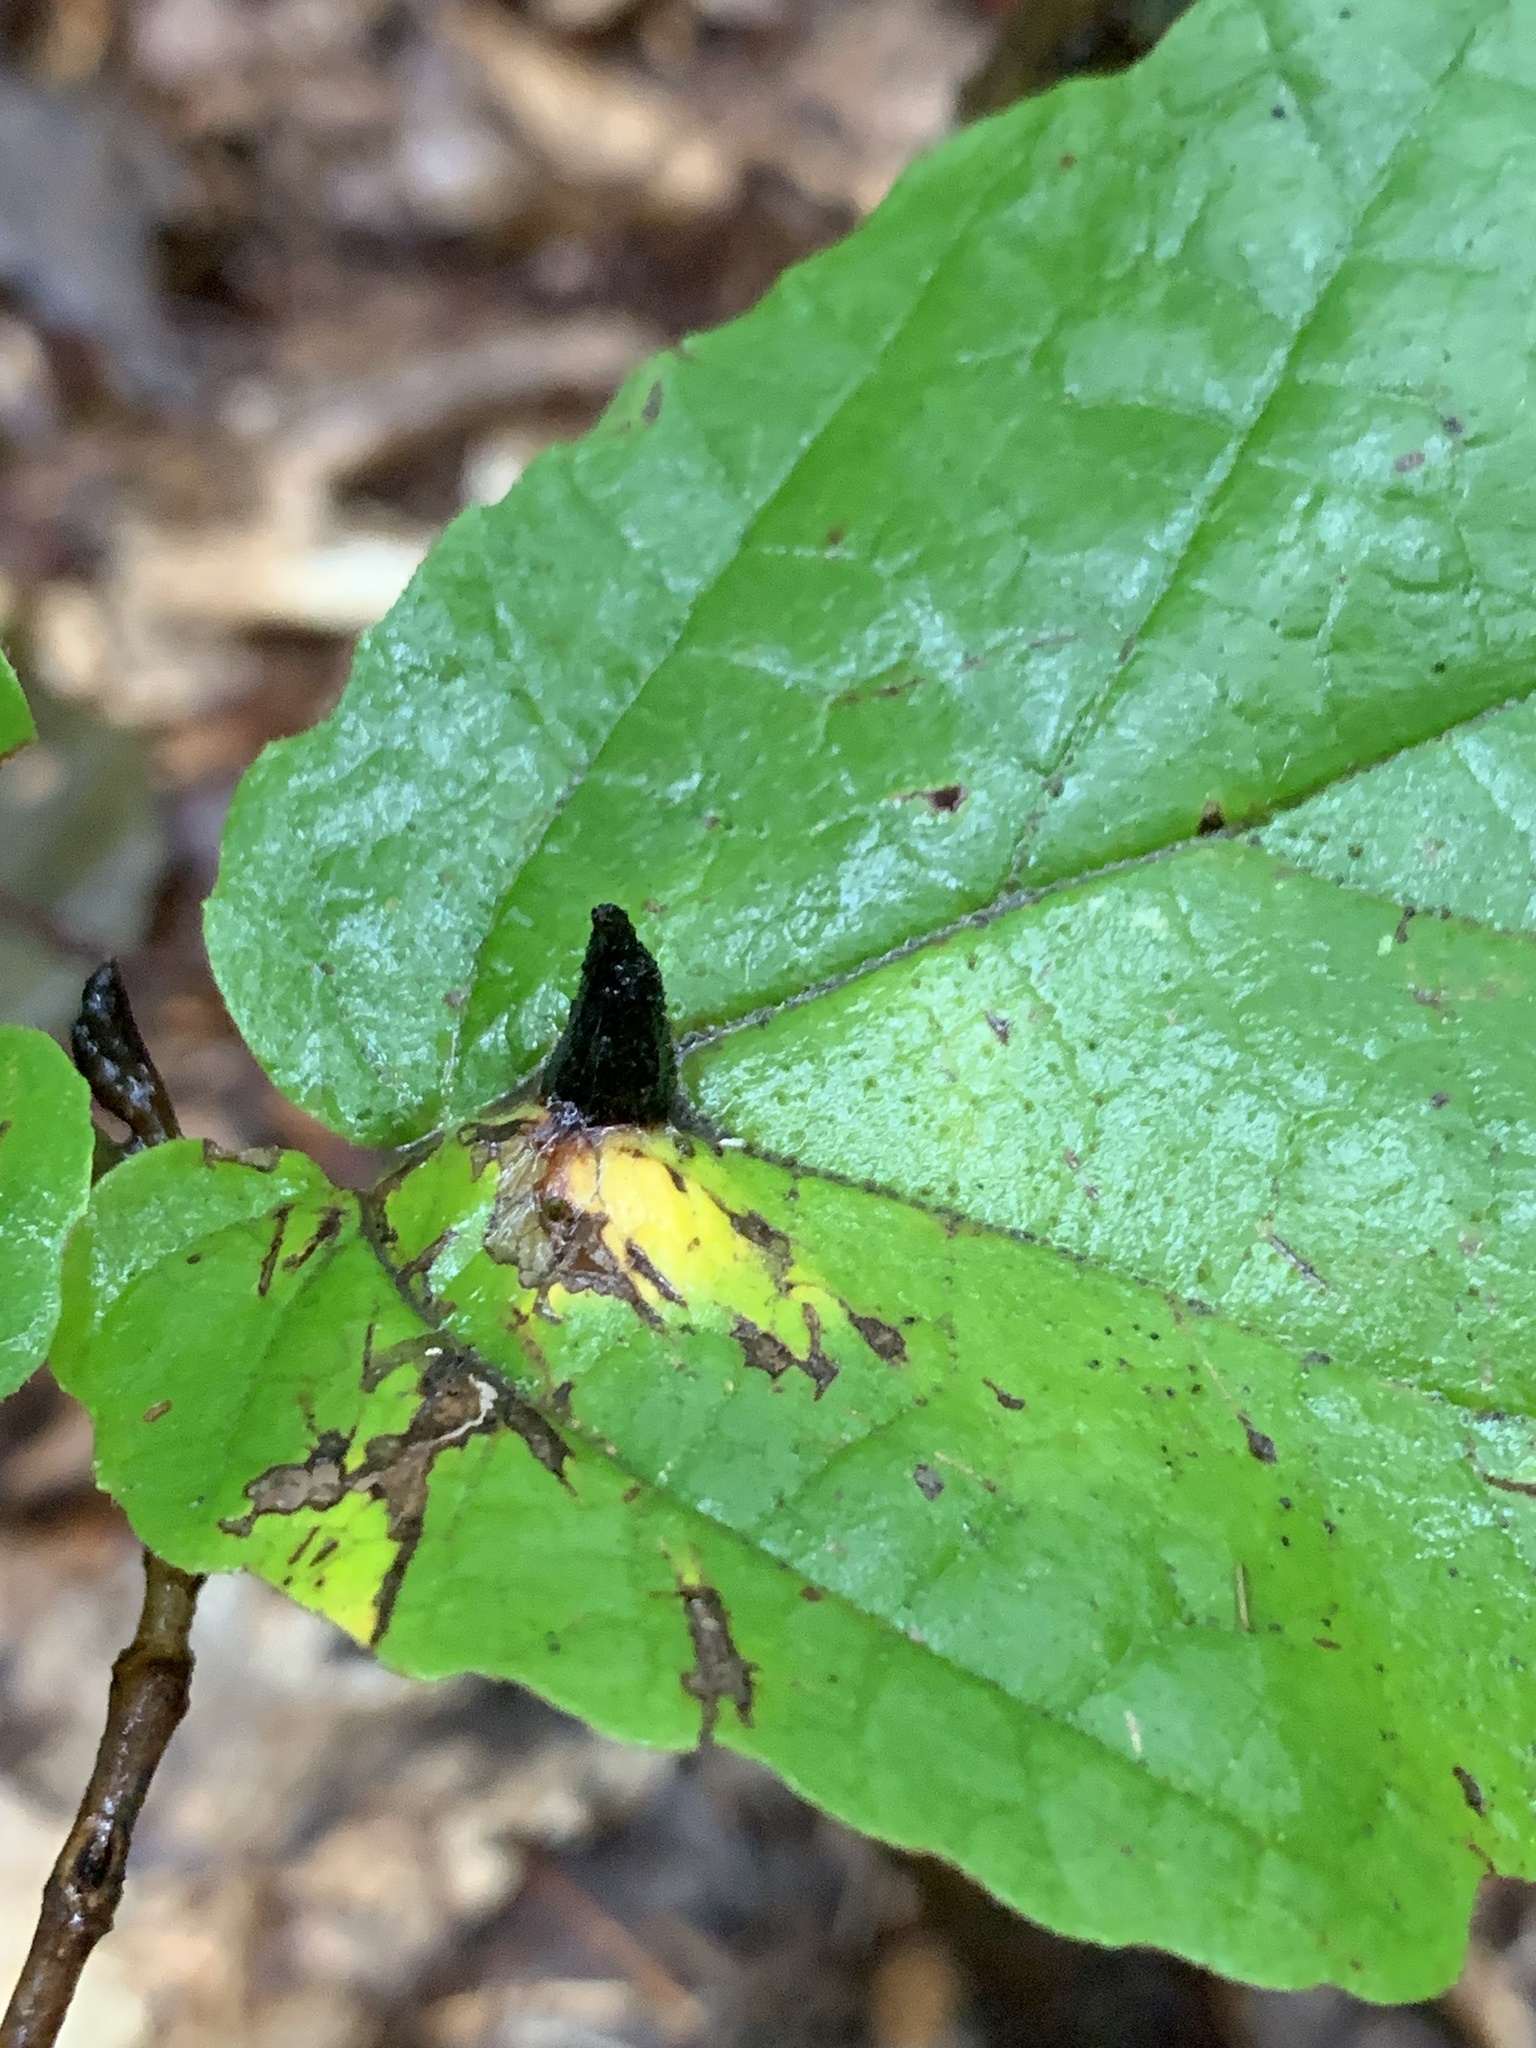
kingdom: Animalia
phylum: Arthropoda
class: Insecta
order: Hemiptera
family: Aphididae
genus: Hormaphis
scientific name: Hormaphis hamamelidis
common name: Witch-hazel cone gall aphid
